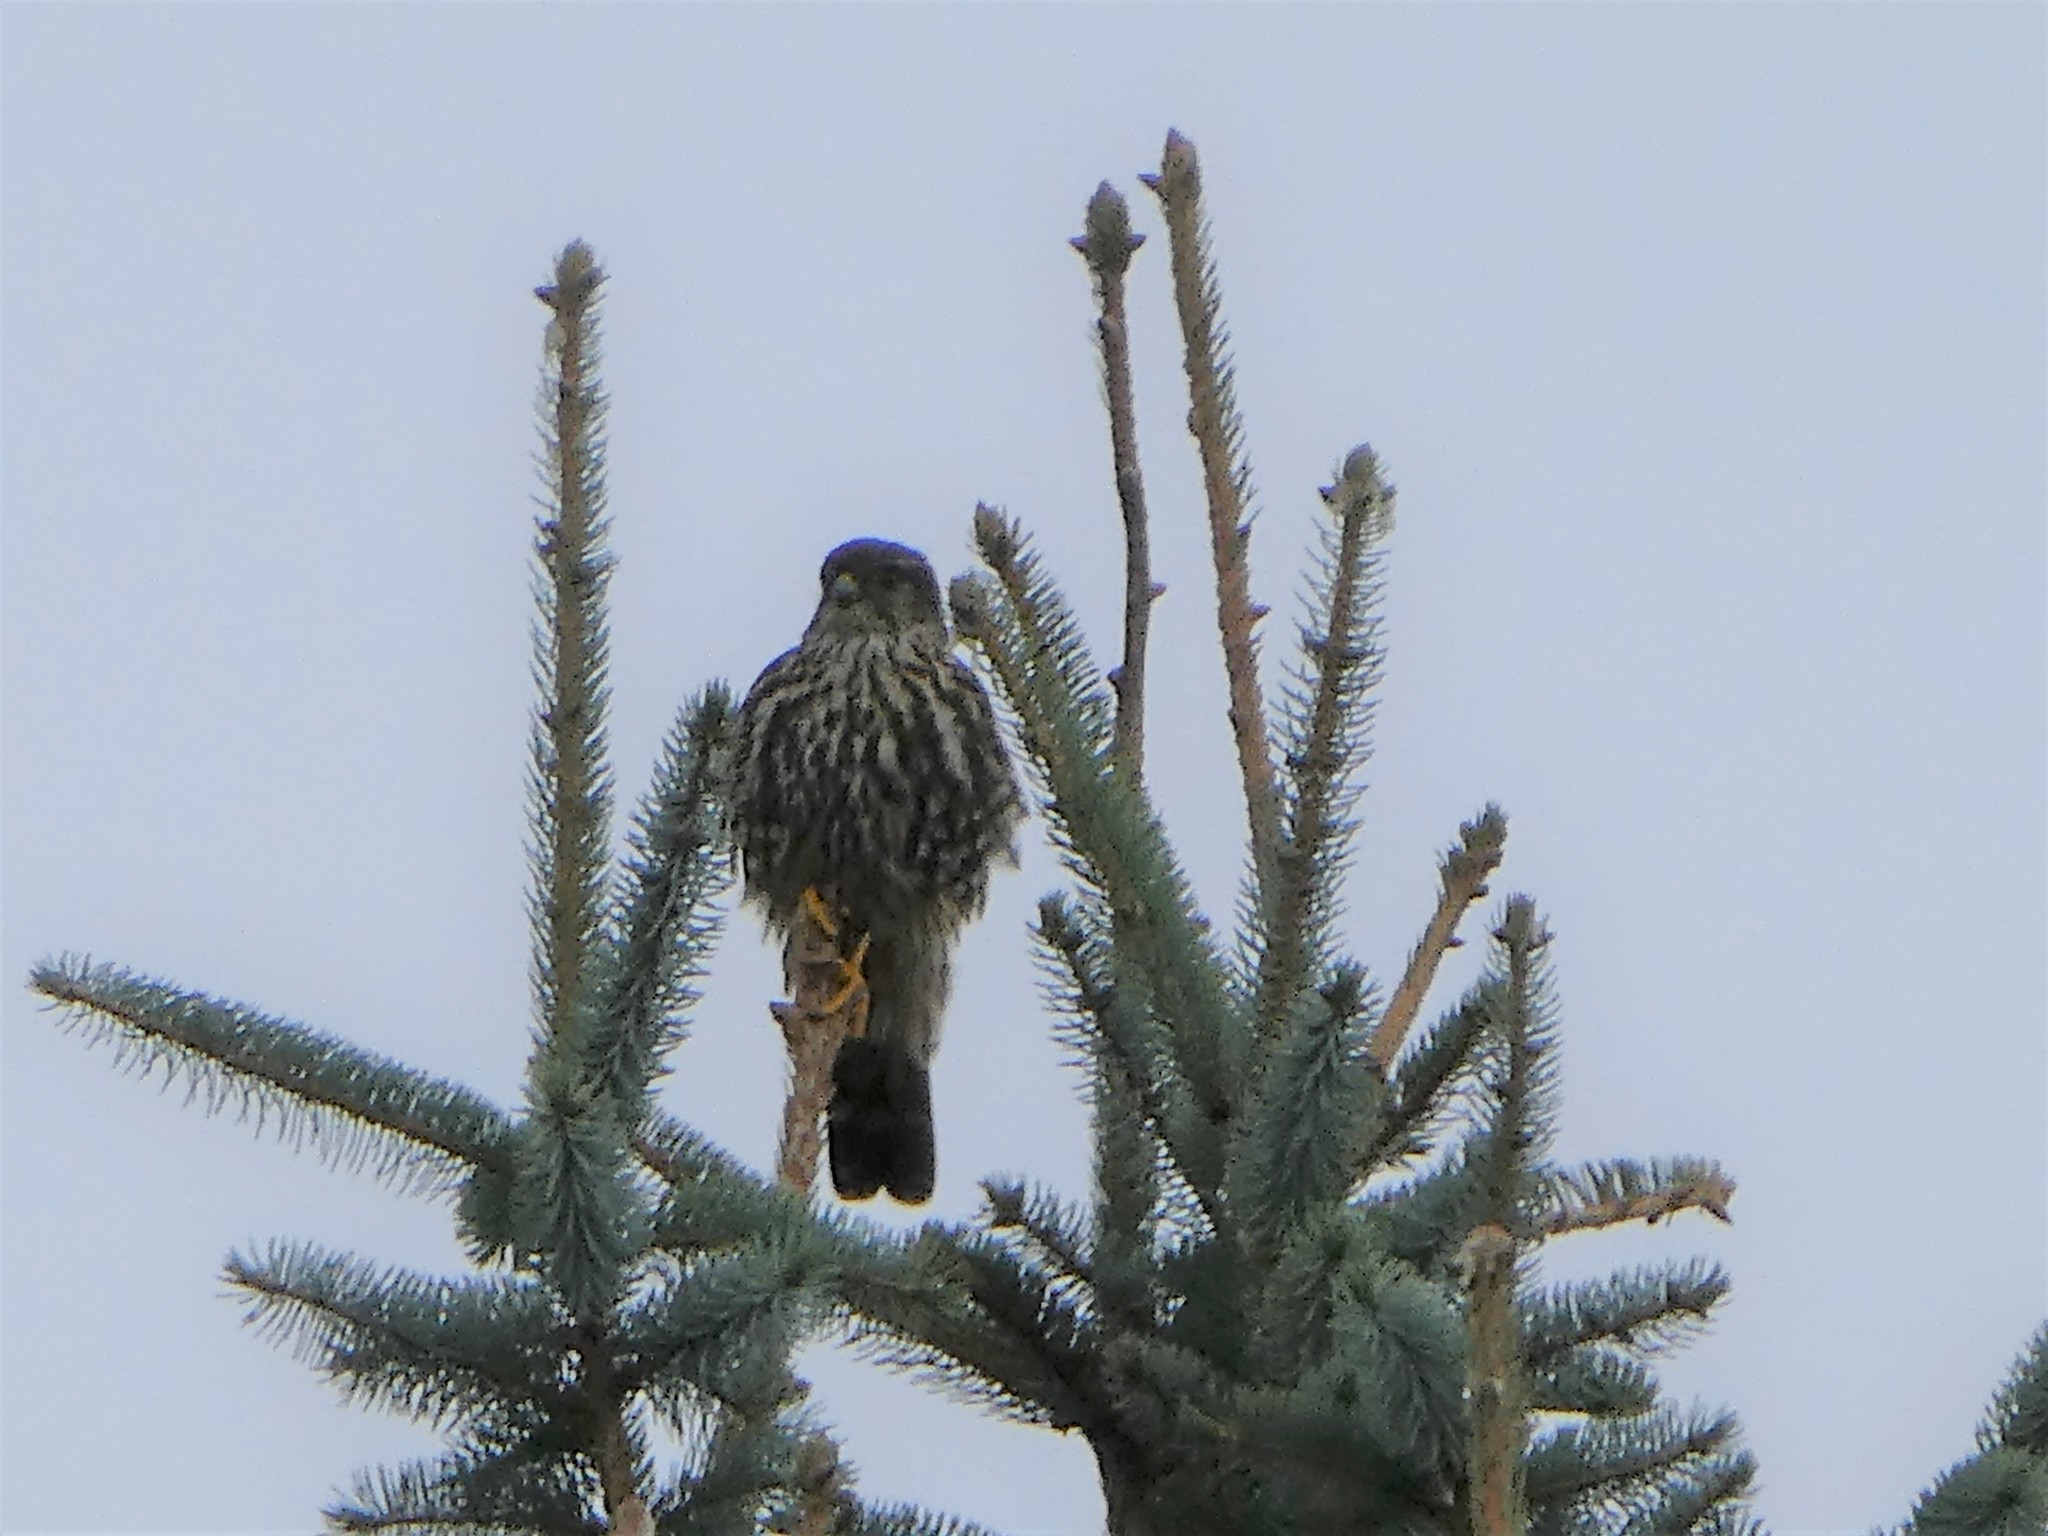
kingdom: Animalia
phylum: Chordata
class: Aves
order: Falconiformes
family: Falconidae
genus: Falco
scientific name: Falco columbarius
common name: Merlin
